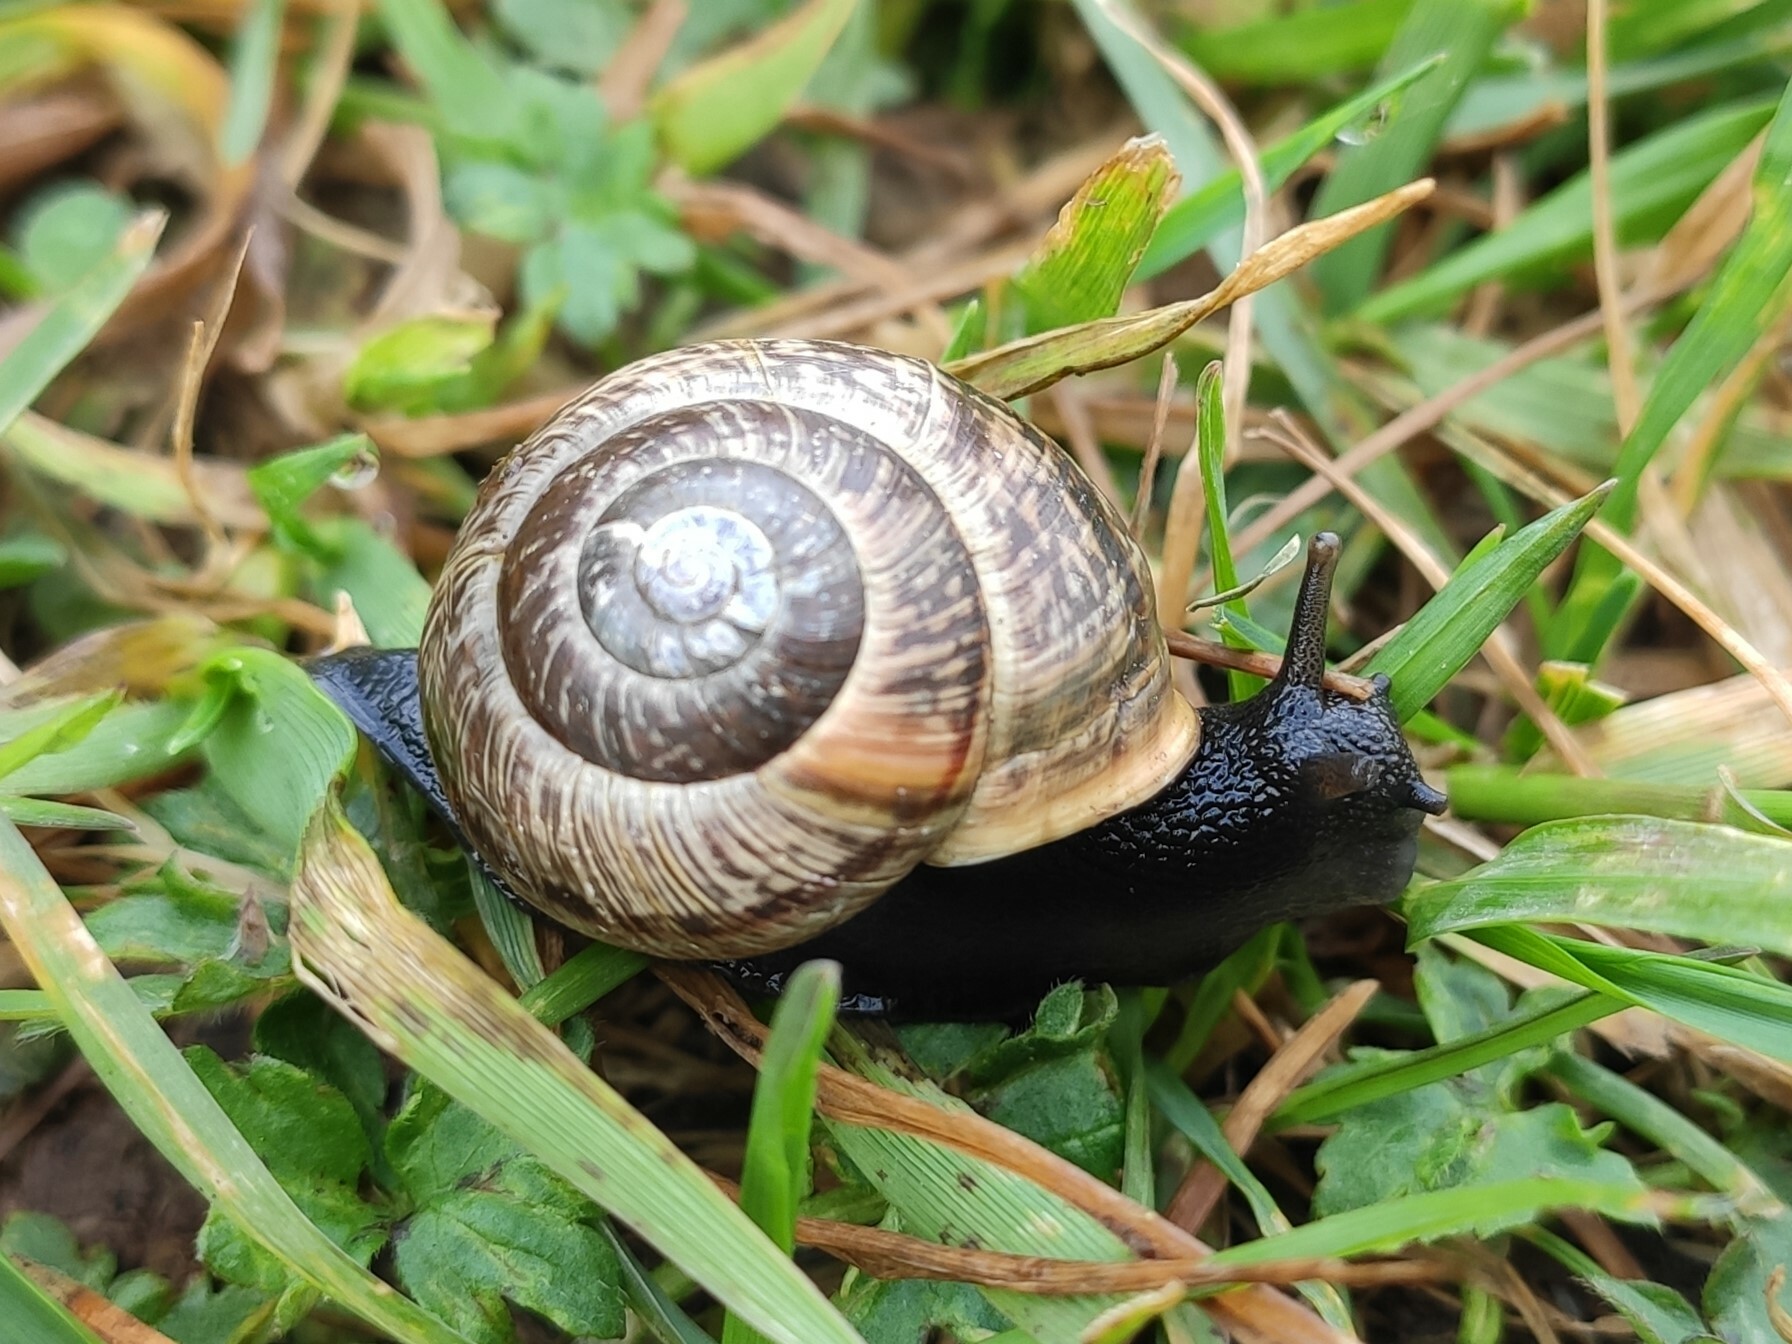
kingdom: Animalia
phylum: Mollusca
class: Gastropoda
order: Stylommatophora
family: Helicidae
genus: Arianta
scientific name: Arianta arbustorum
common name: Copse snail
